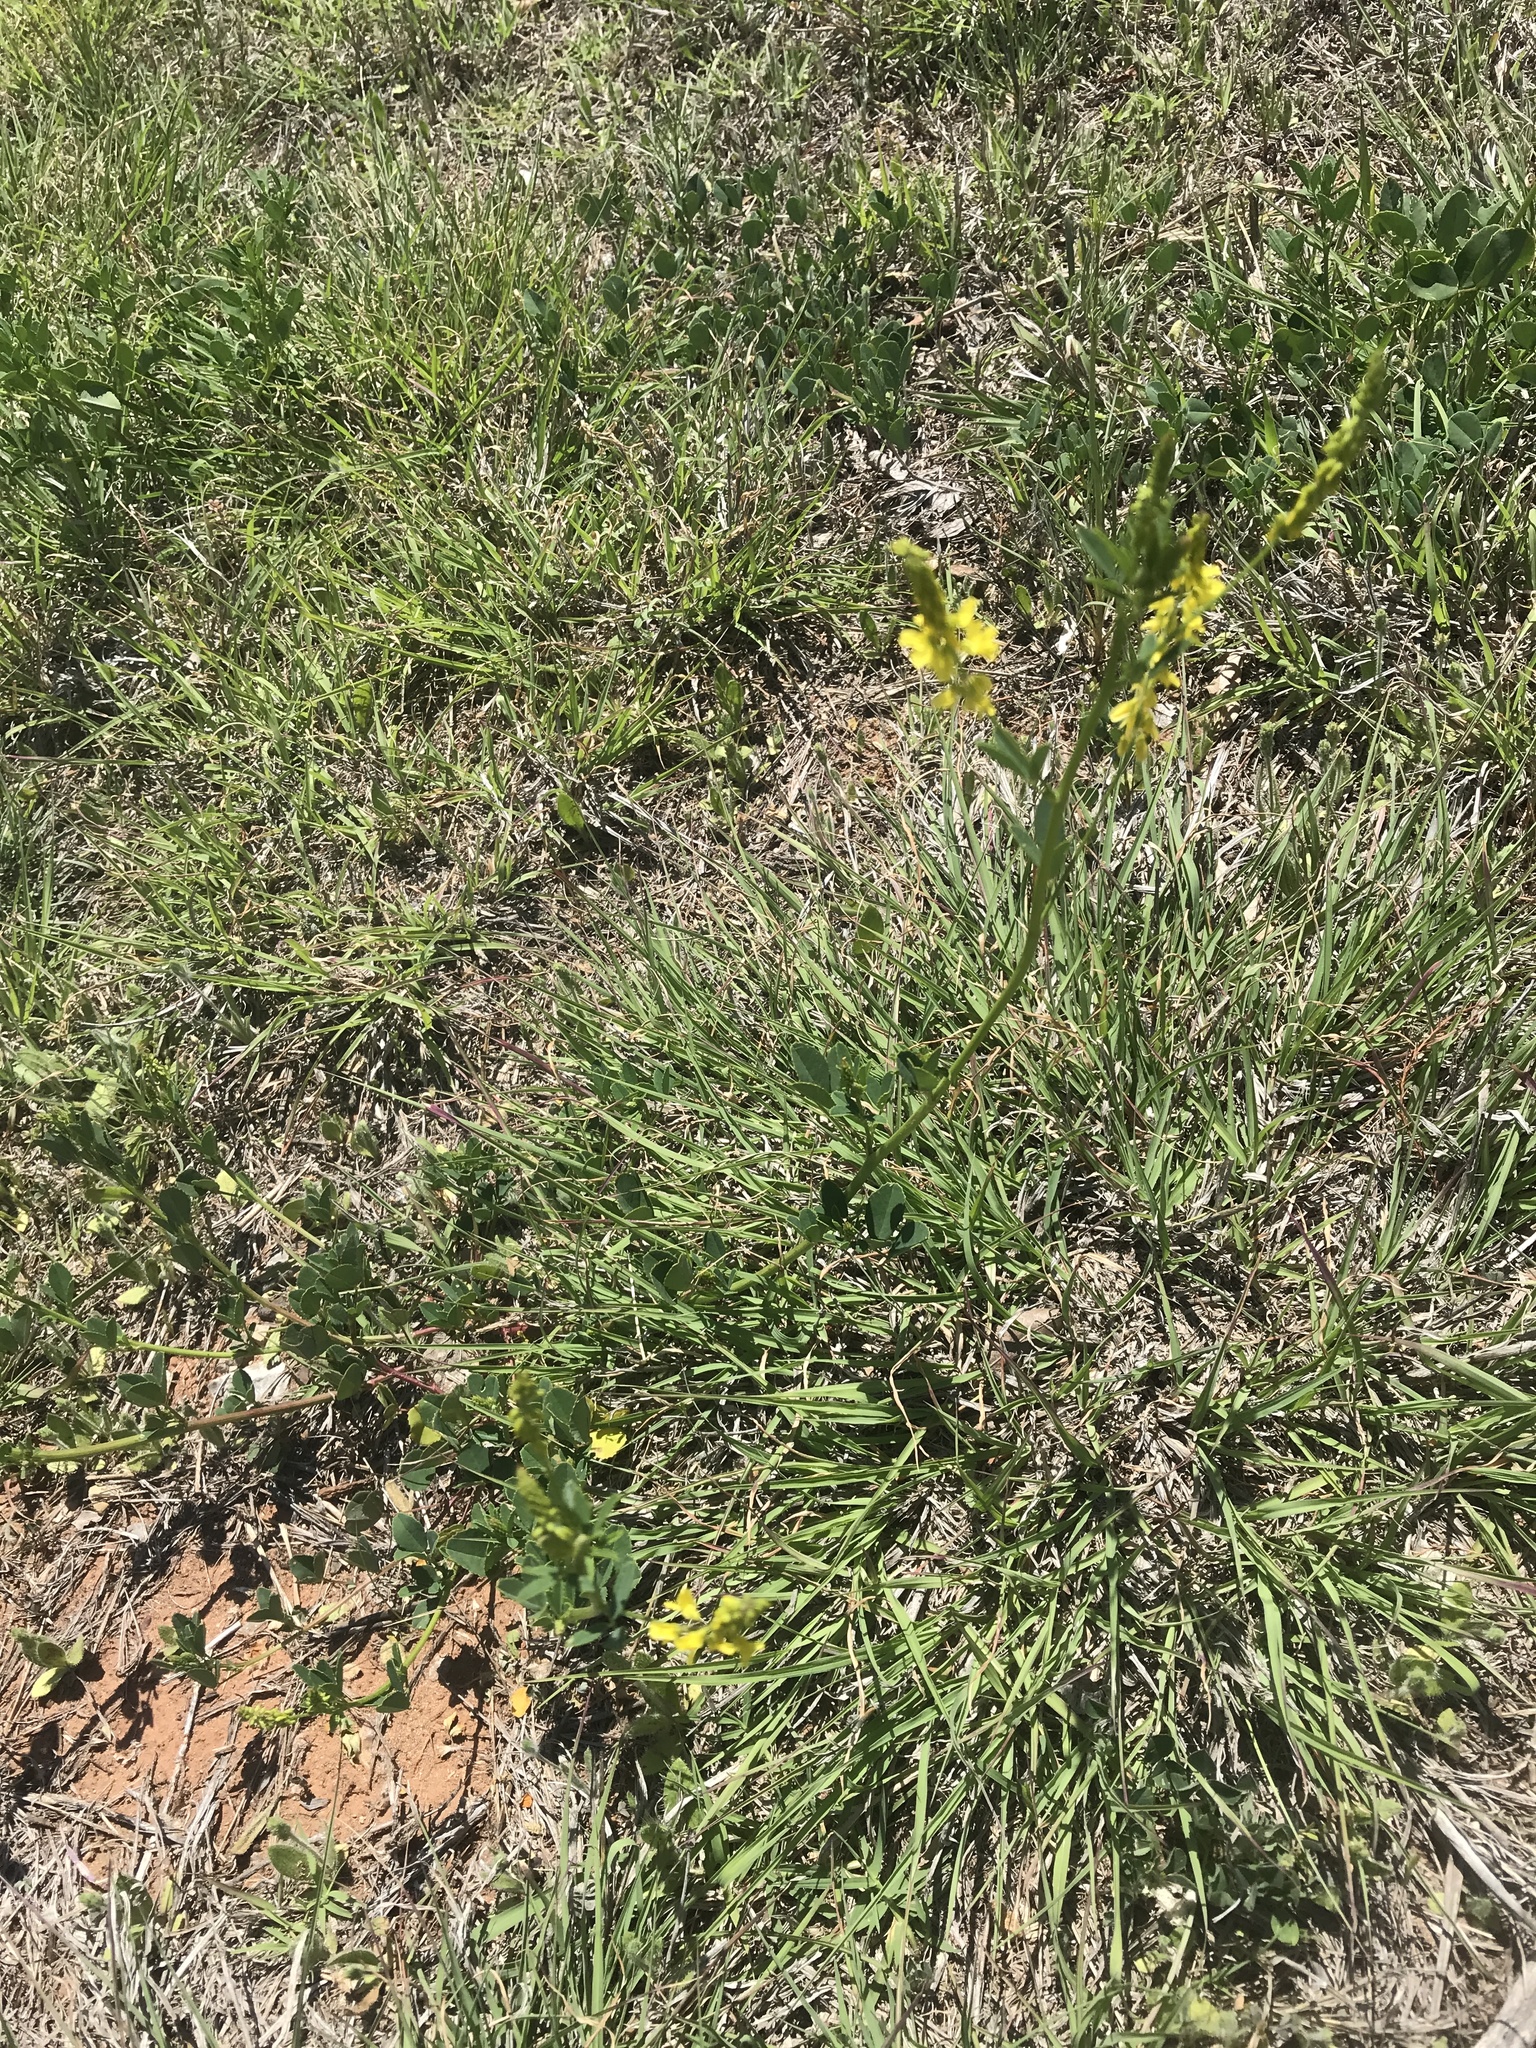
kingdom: Plantae
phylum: Tracheophyta
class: Magnoliopsida
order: Fabales
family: Fabaceae
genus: Melilotus
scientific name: Melilotus officinalis
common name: Sweetclover
